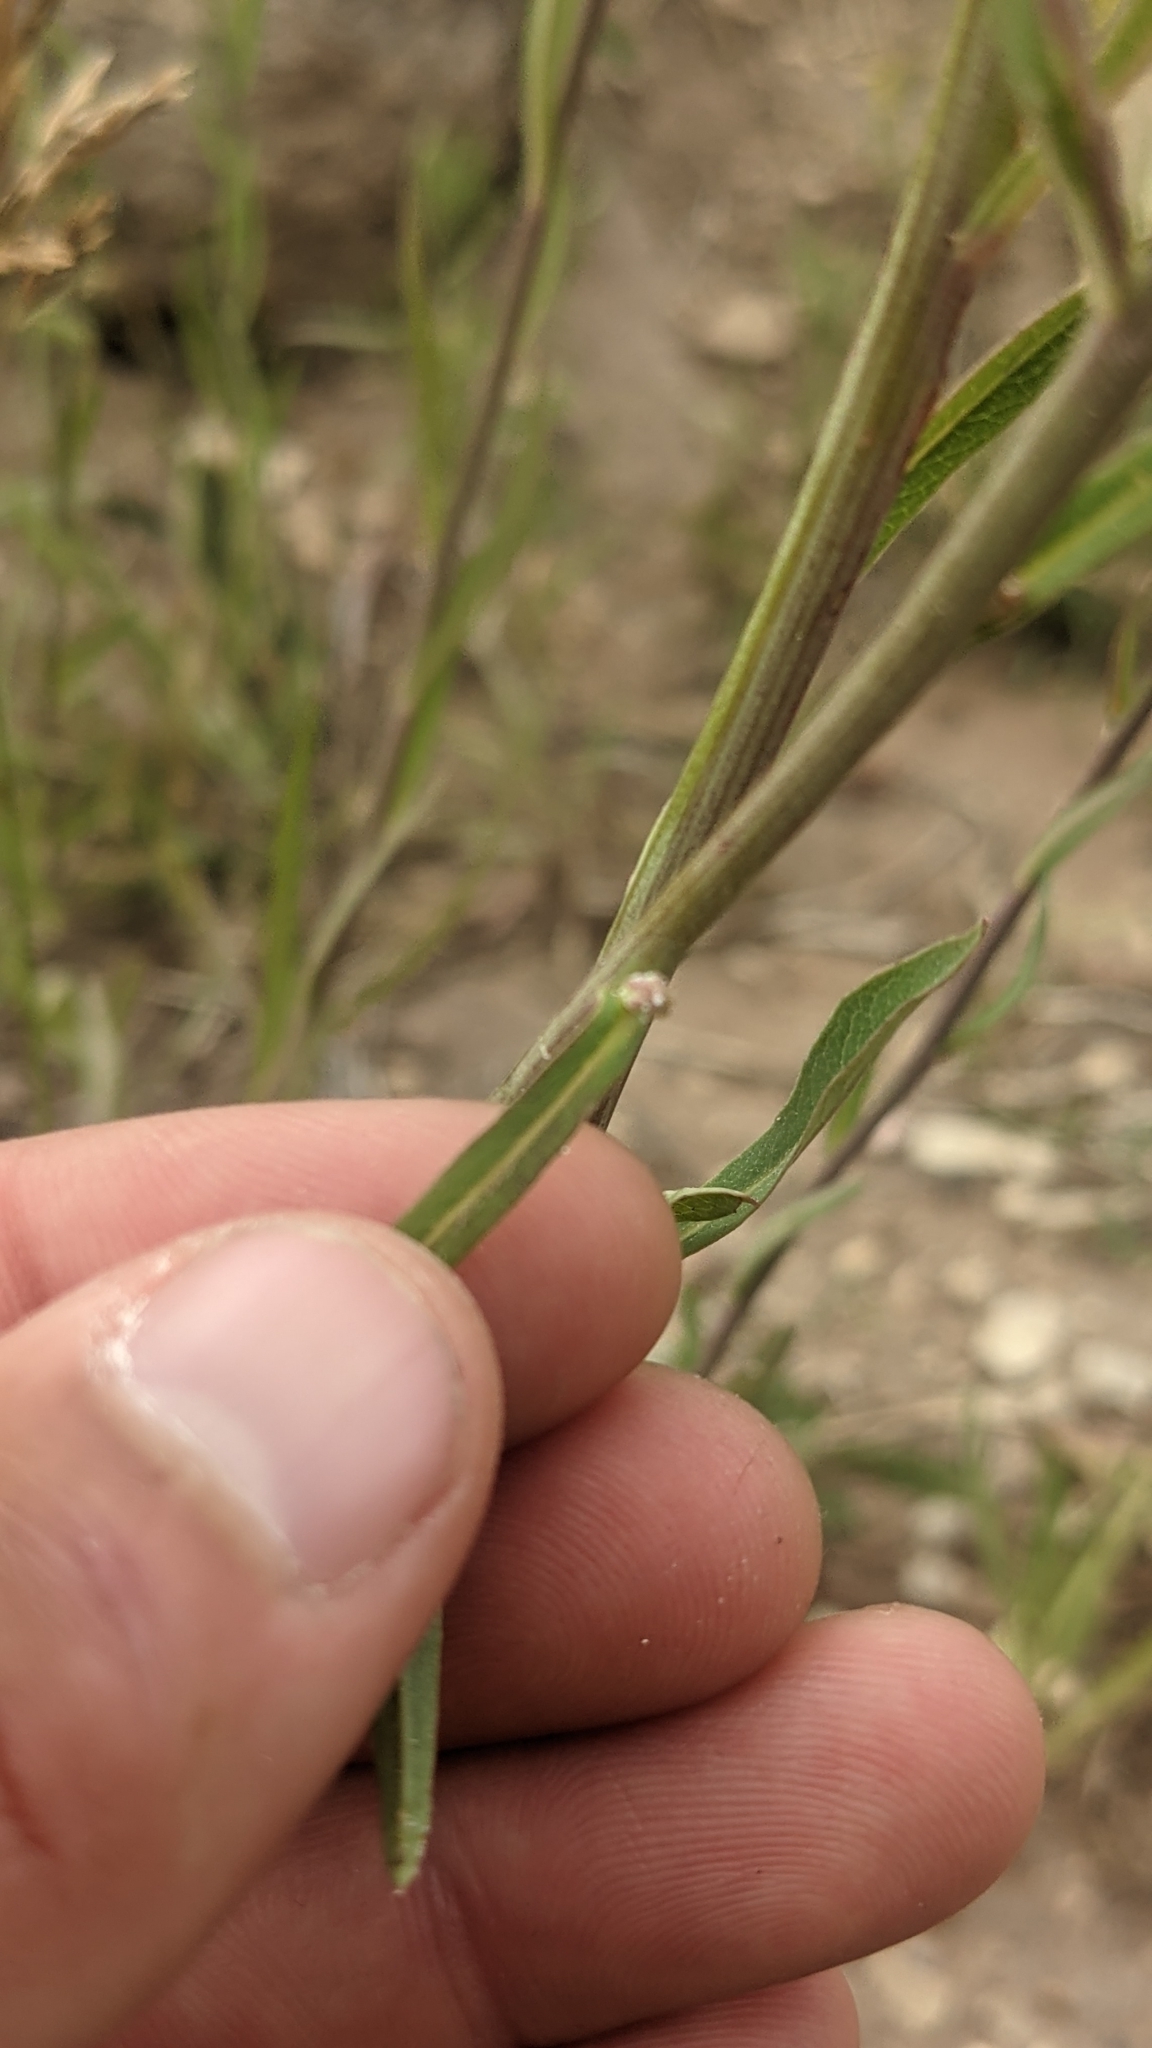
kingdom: Plantae
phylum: Tracheophyta
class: Magnoliopsida
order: Asterales
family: Asteraceae
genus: Lactuca
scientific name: Lactuca pulchella
